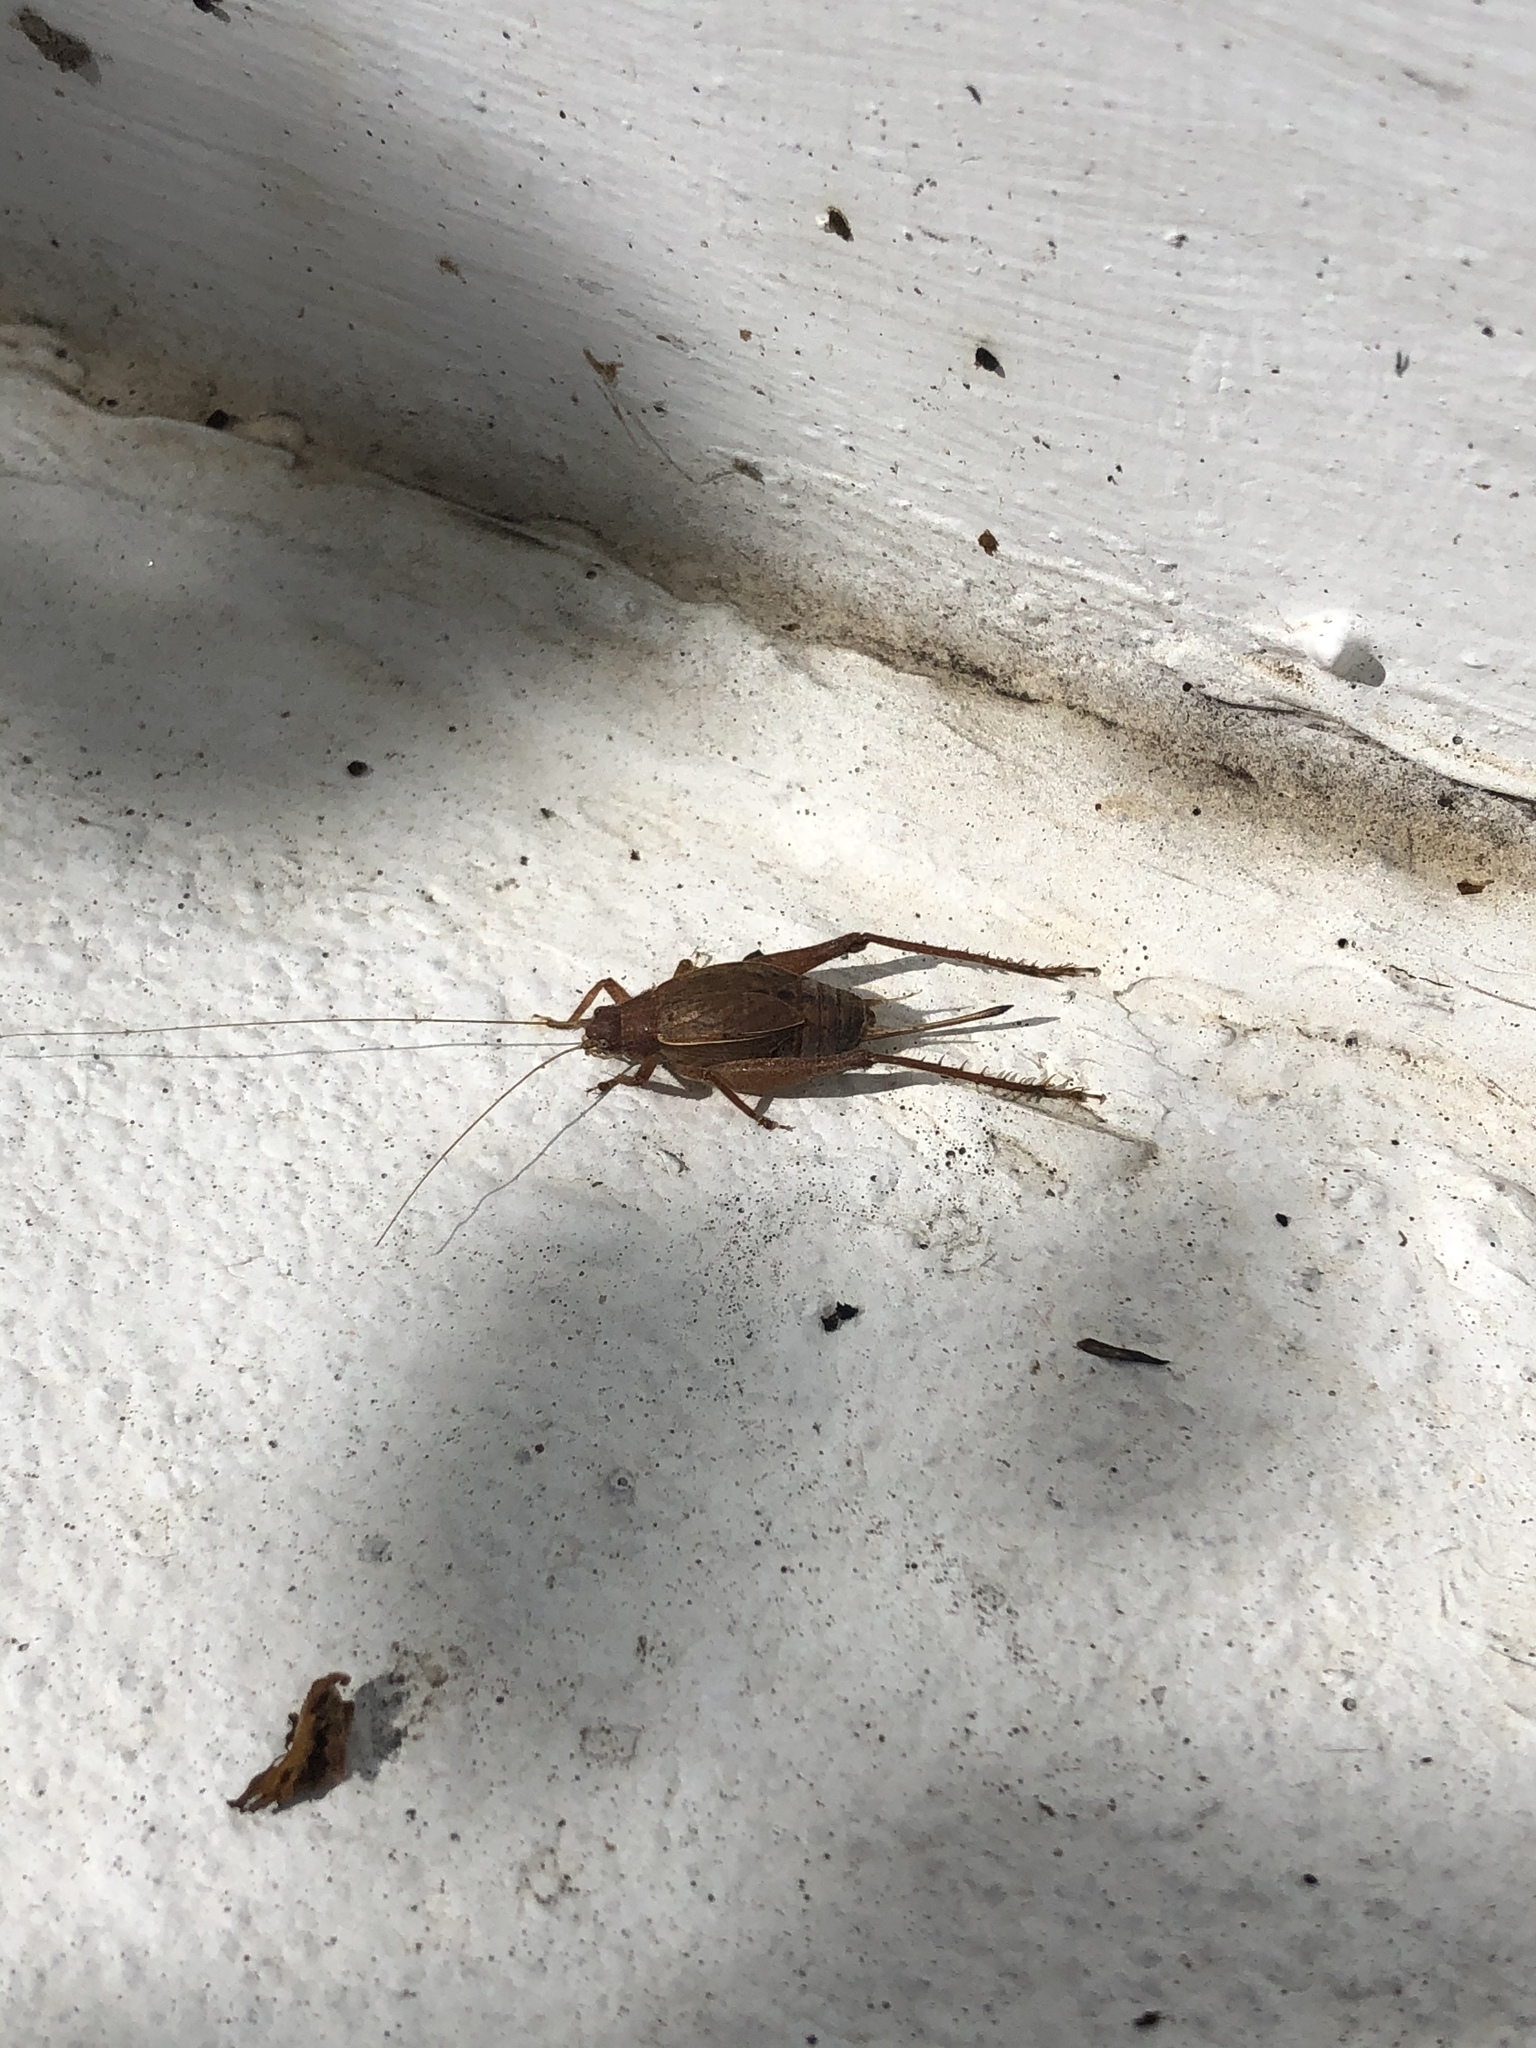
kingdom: Animalia
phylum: Arthropoda
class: Insecta
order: Orthoptera
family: Gryllidae
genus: Hapithus
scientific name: Hapithus agitator
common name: Restless bush cricket
